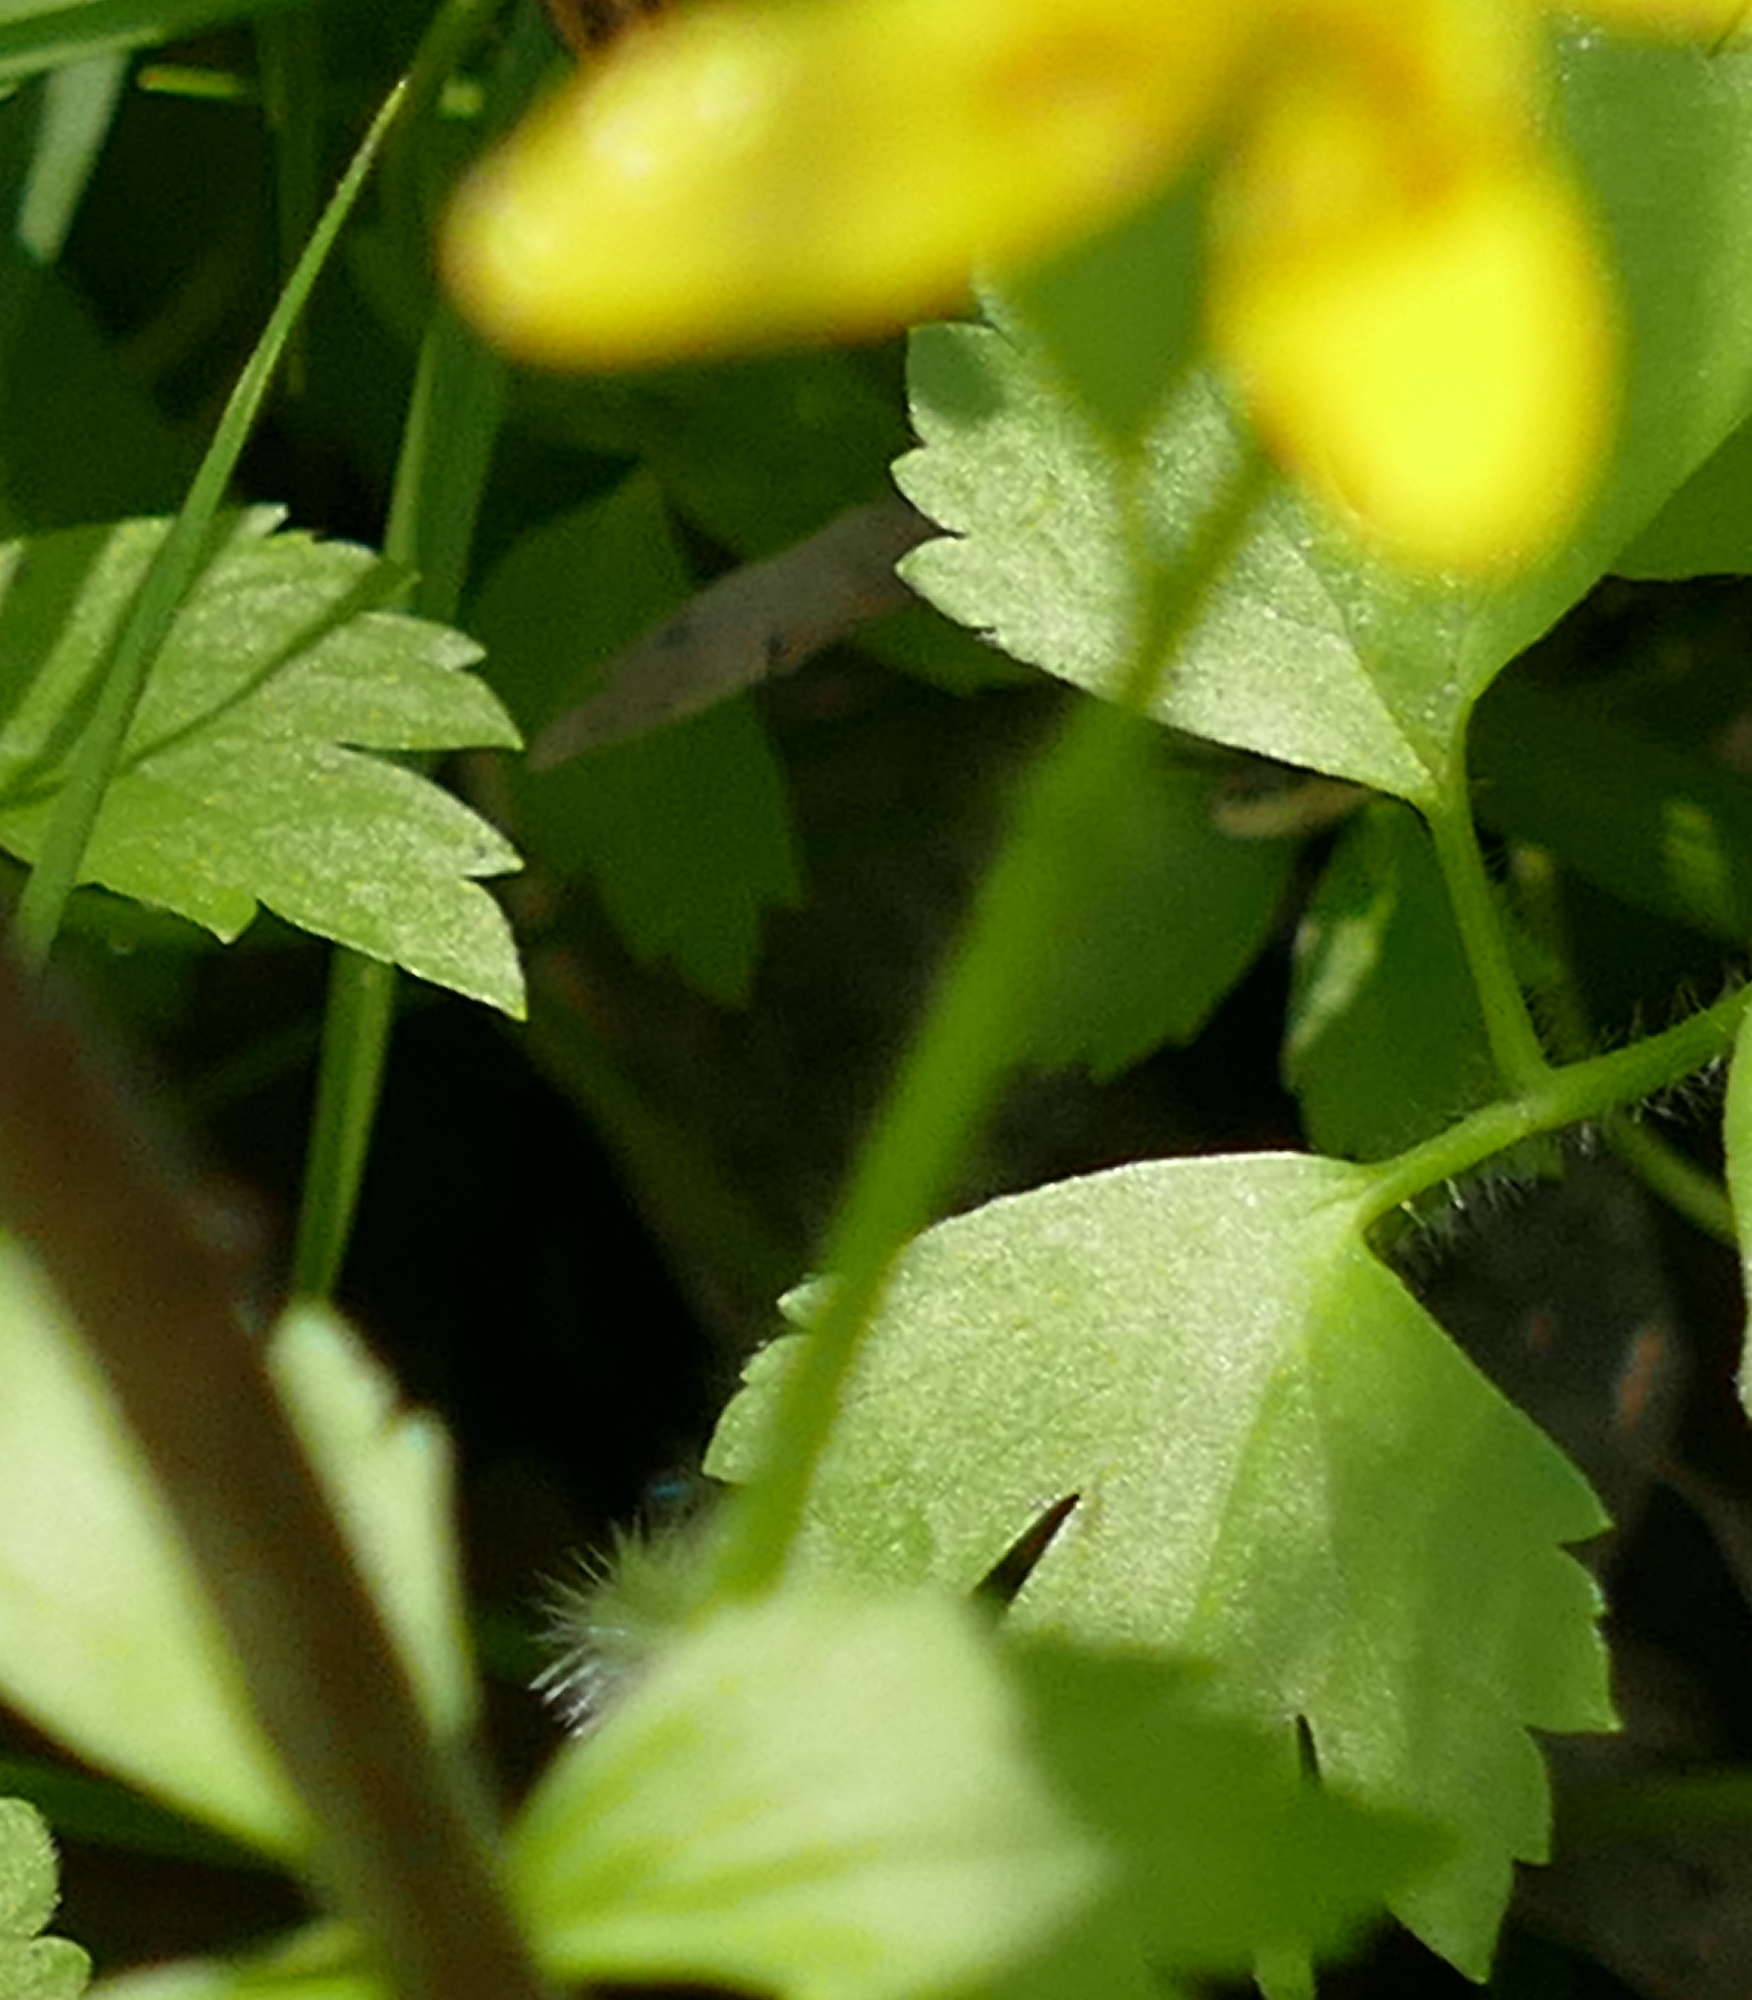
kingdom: Plantae
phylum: Tracheophyta
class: Magnoliopsida
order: Ranunculales
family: Ranunculaceae
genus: Ranunculus
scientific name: Ranunculus hispidus
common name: Bristly buttercup
